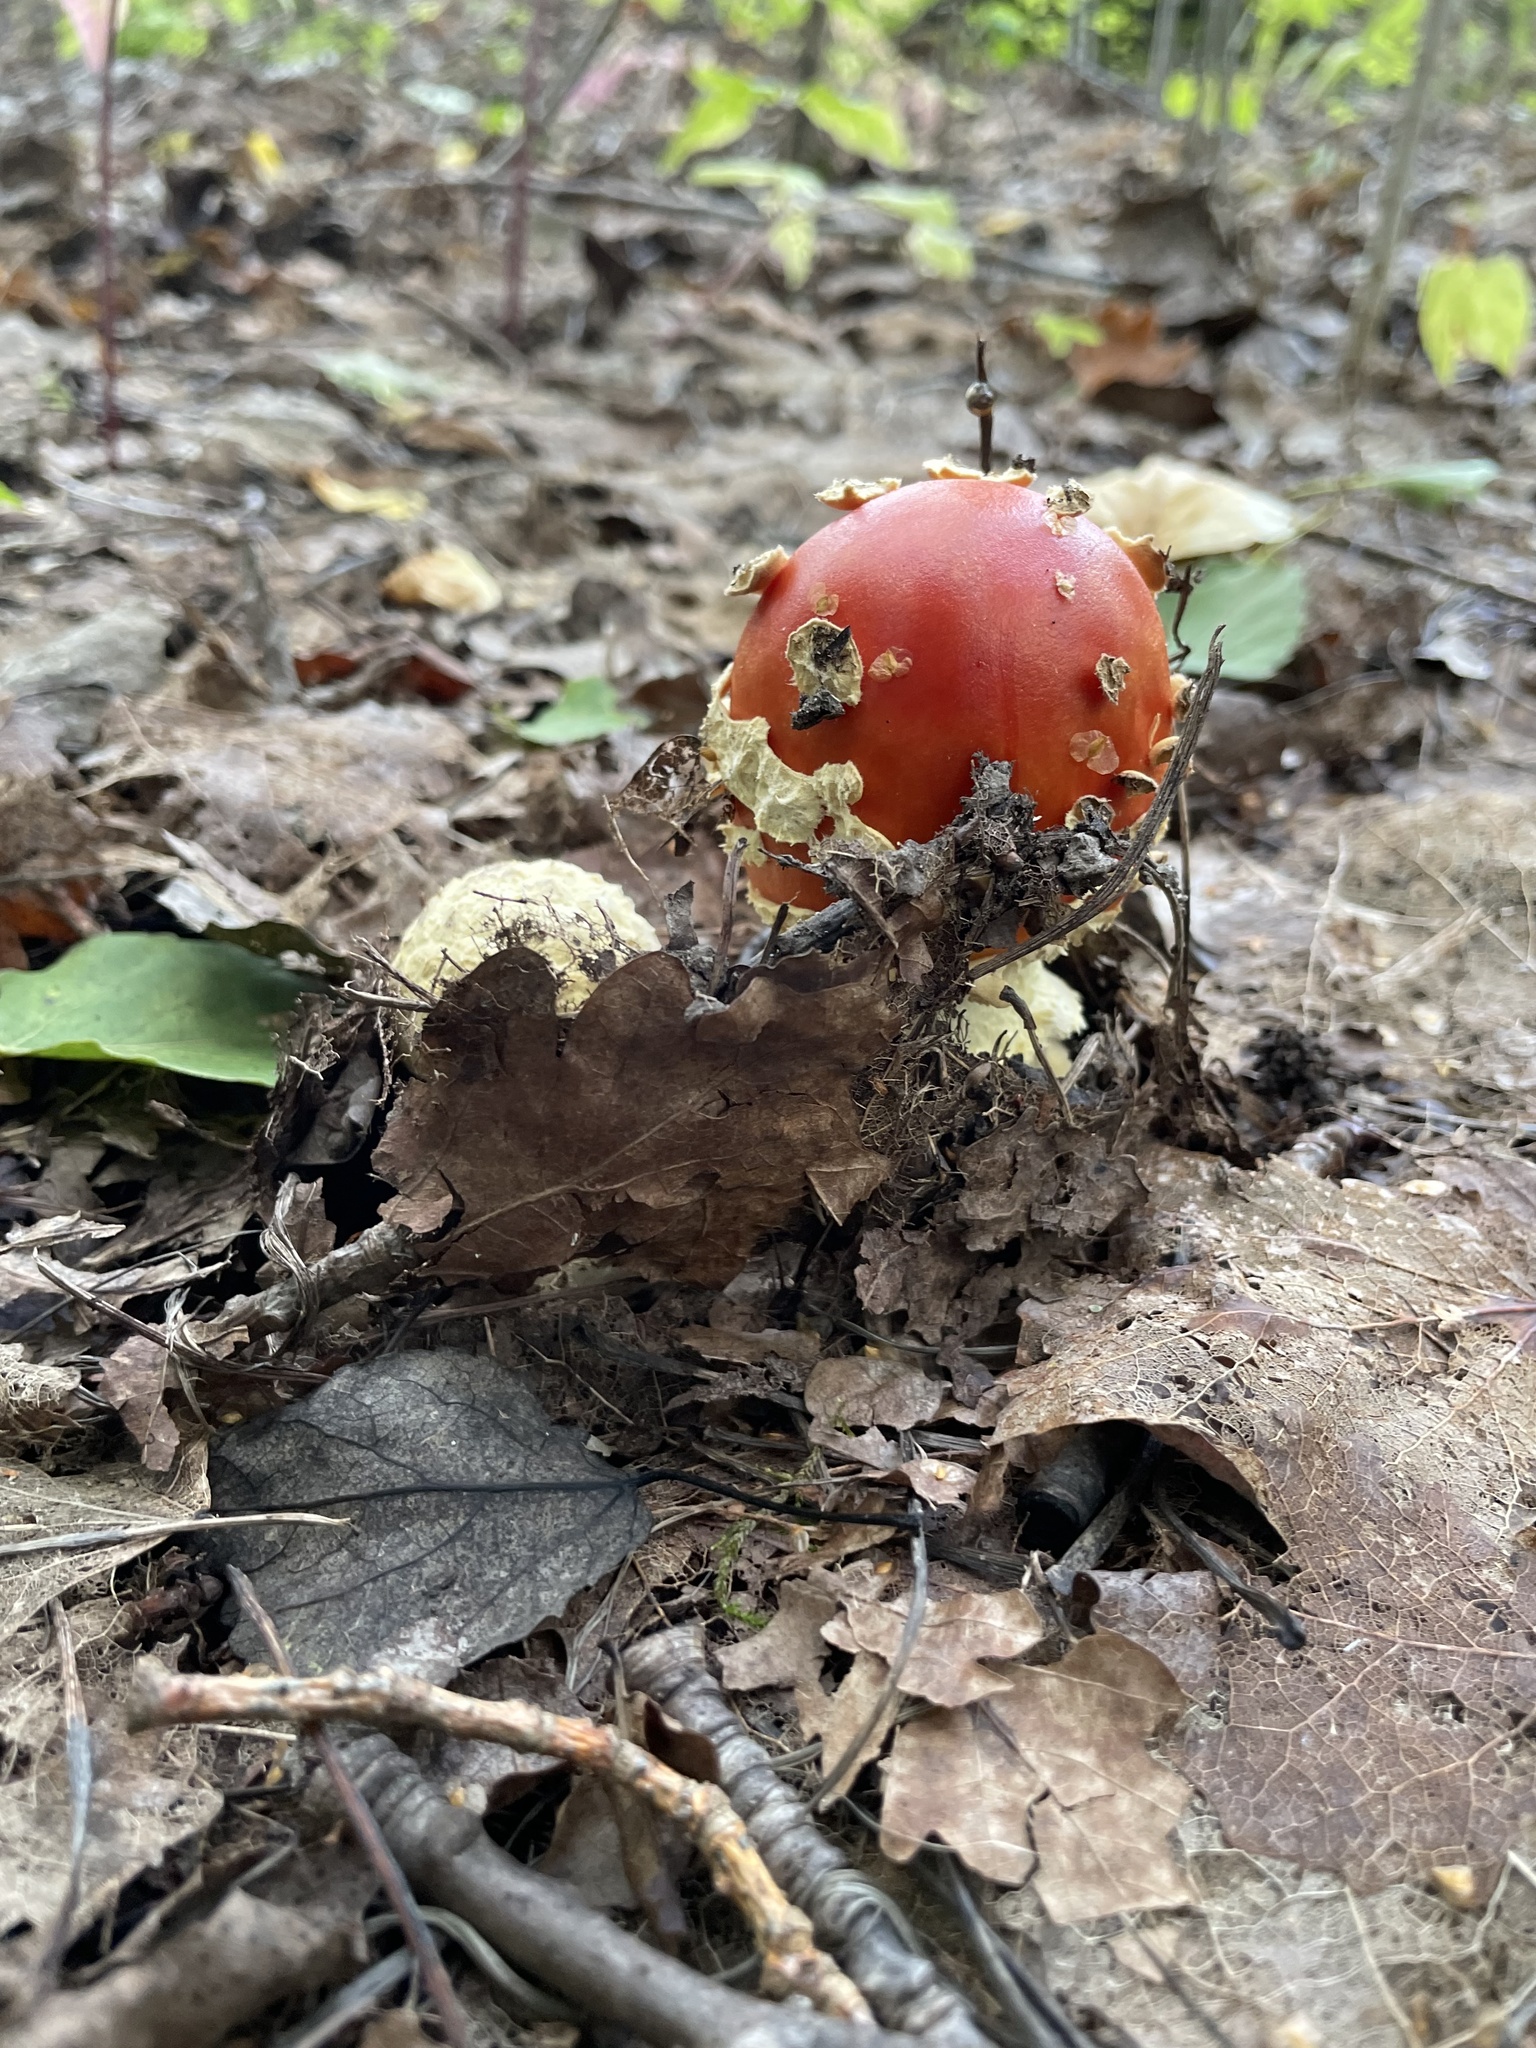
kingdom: Fungi
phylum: Basidiomycota
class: Agaricomycetes
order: Agaricales
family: Amanitaceae
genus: Amanita
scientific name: Amanita muscaria
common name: Fly agaric
